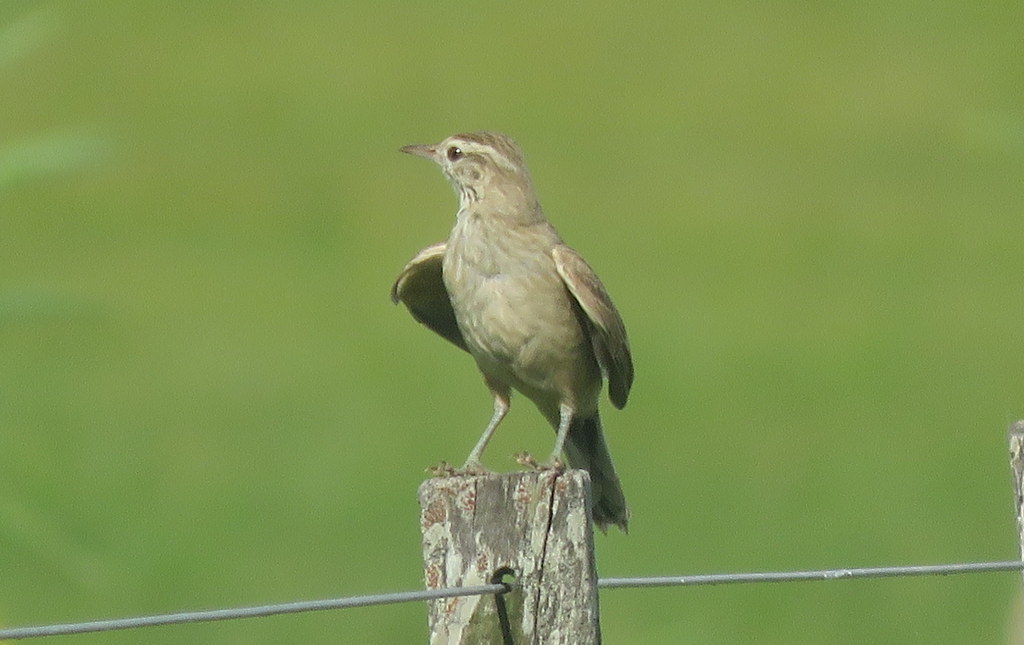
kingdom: Animalia
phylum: Chordata
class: Aves
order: Passeriformes
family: Furnariidae
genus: Anumbius
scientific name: Anumbius annumbi
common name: Firewood-gatherer
